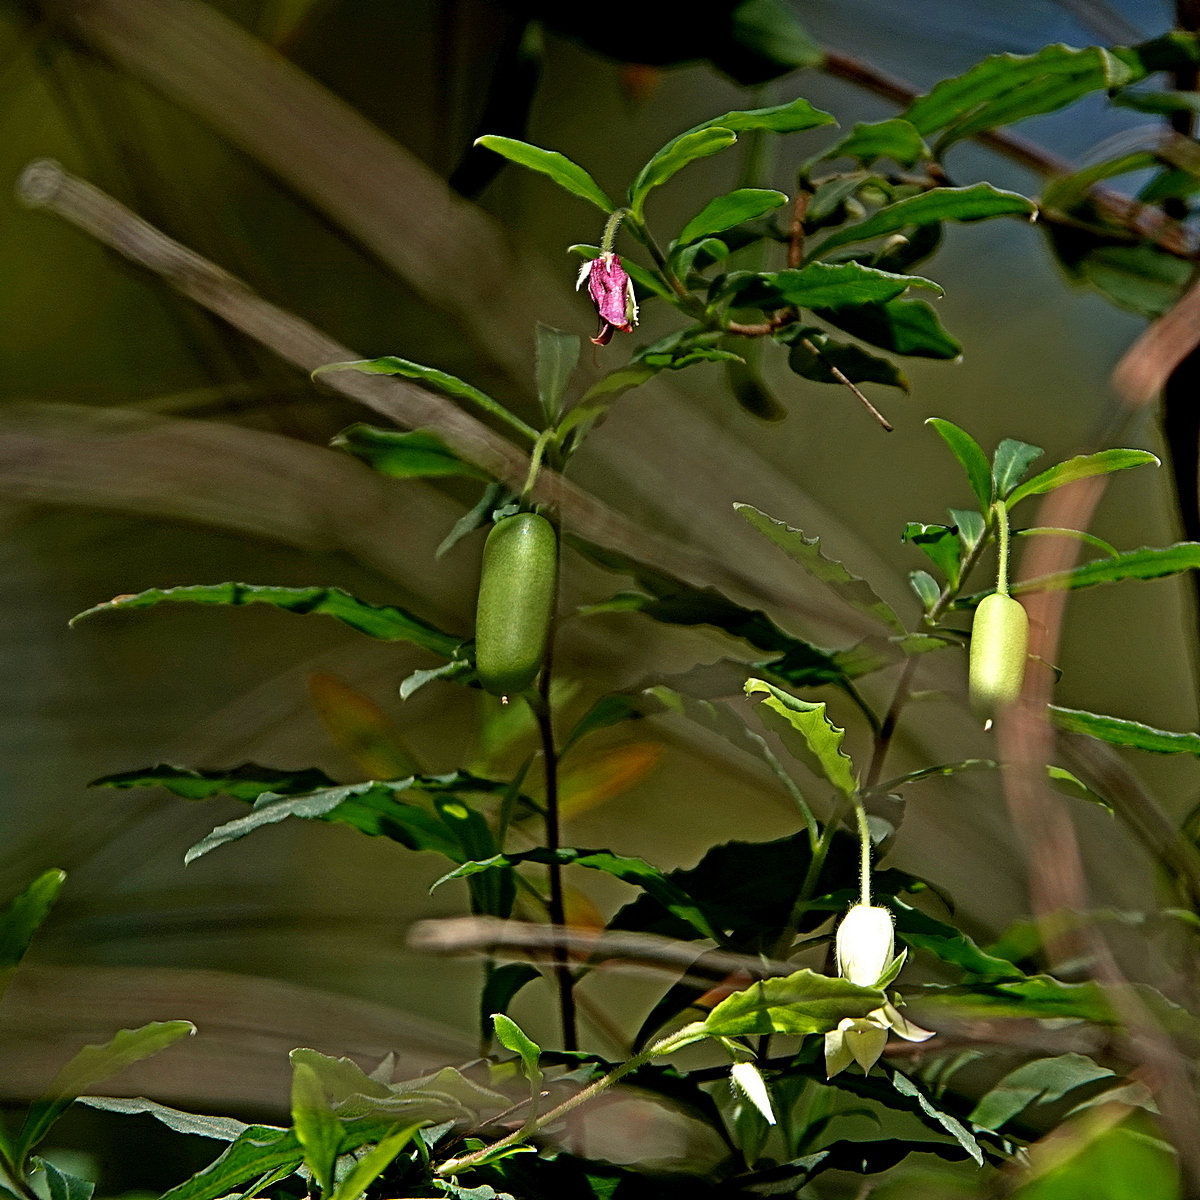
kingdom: Plantae
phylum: Tracheophyta
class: Magnoliopsida
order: Apiales
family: Pittosporaceae
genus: Billardiera
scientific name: Billardiera mutabilis
